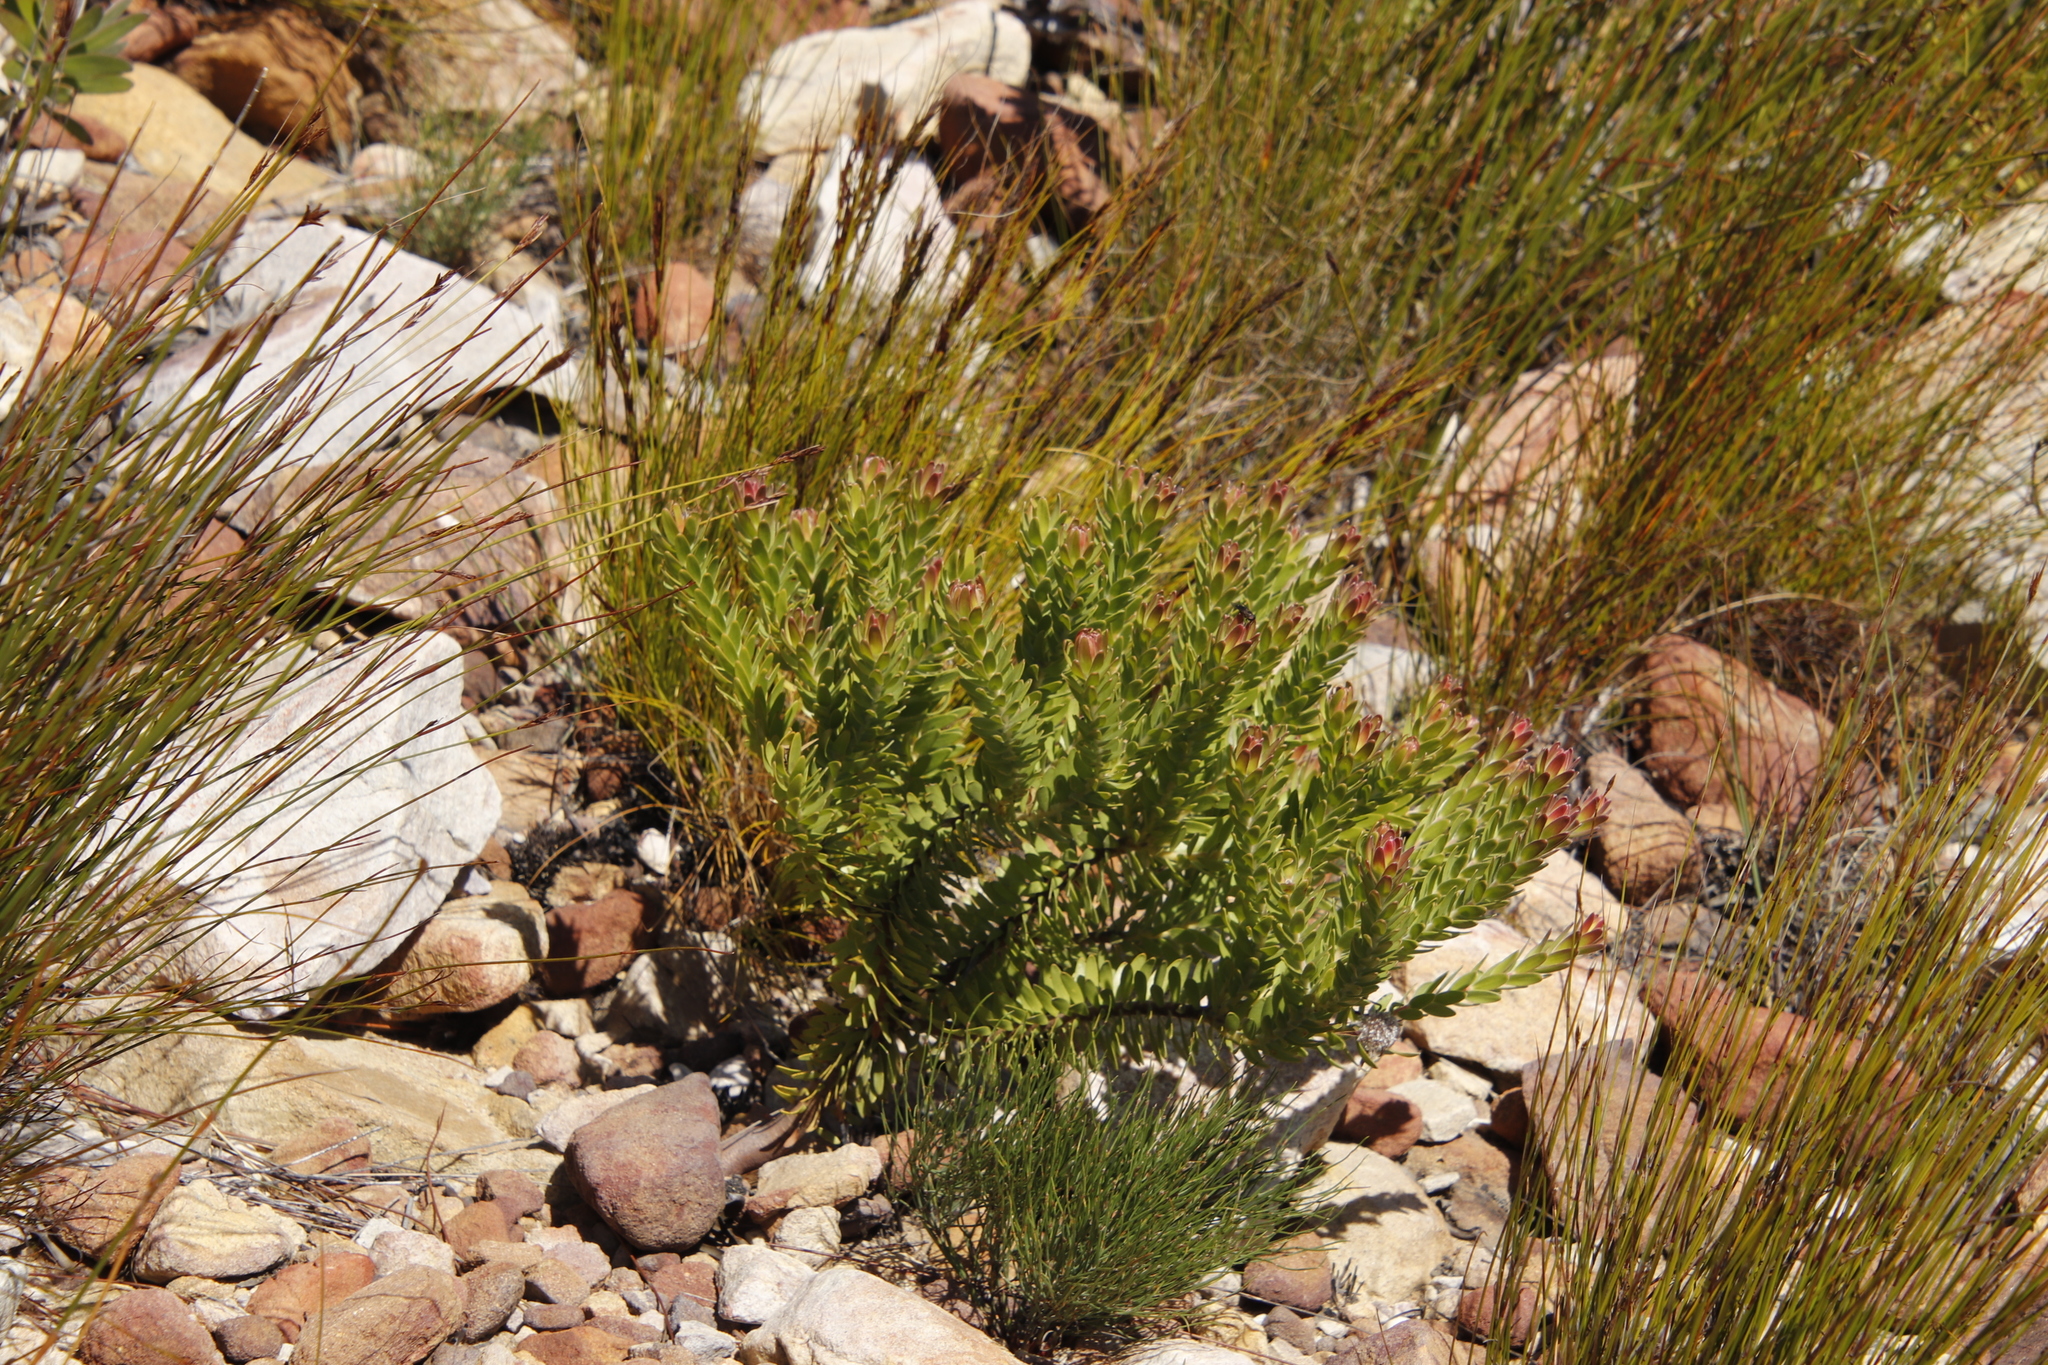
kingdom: Plantae
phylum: Tracheophyta
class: Magnoliopsida
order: Proteales
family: Proteaceae
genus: Diastella
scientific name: Diastella thymelaeoides
